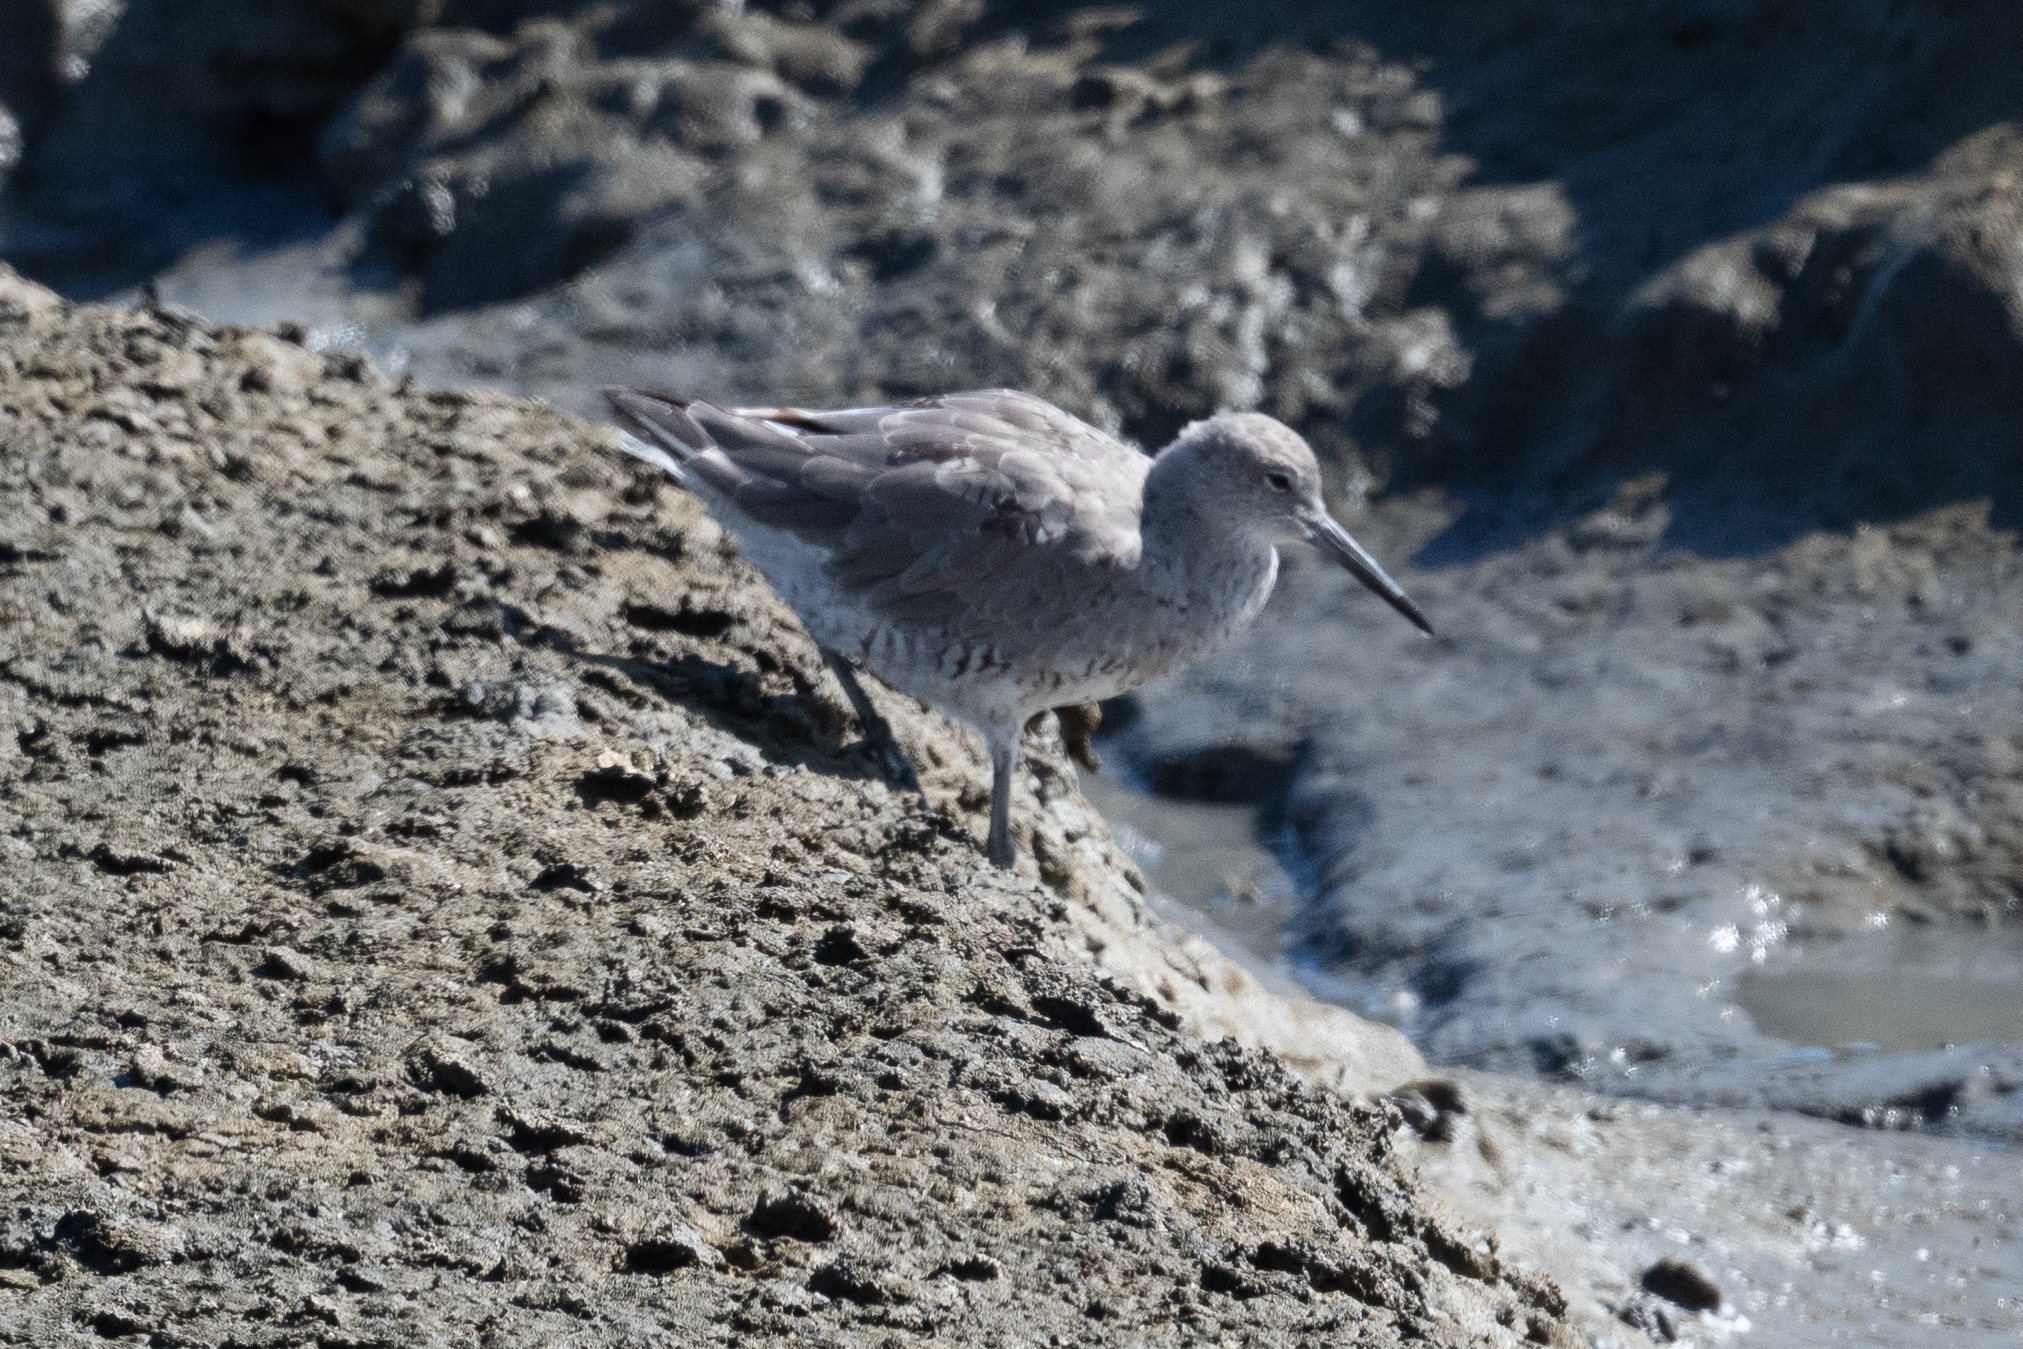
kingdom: Animalia
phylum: Chordata
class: Aves
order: Charadriiformes
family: Scolopacidae
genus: Tringa
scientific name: Tringa semipalmata
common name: Willet
